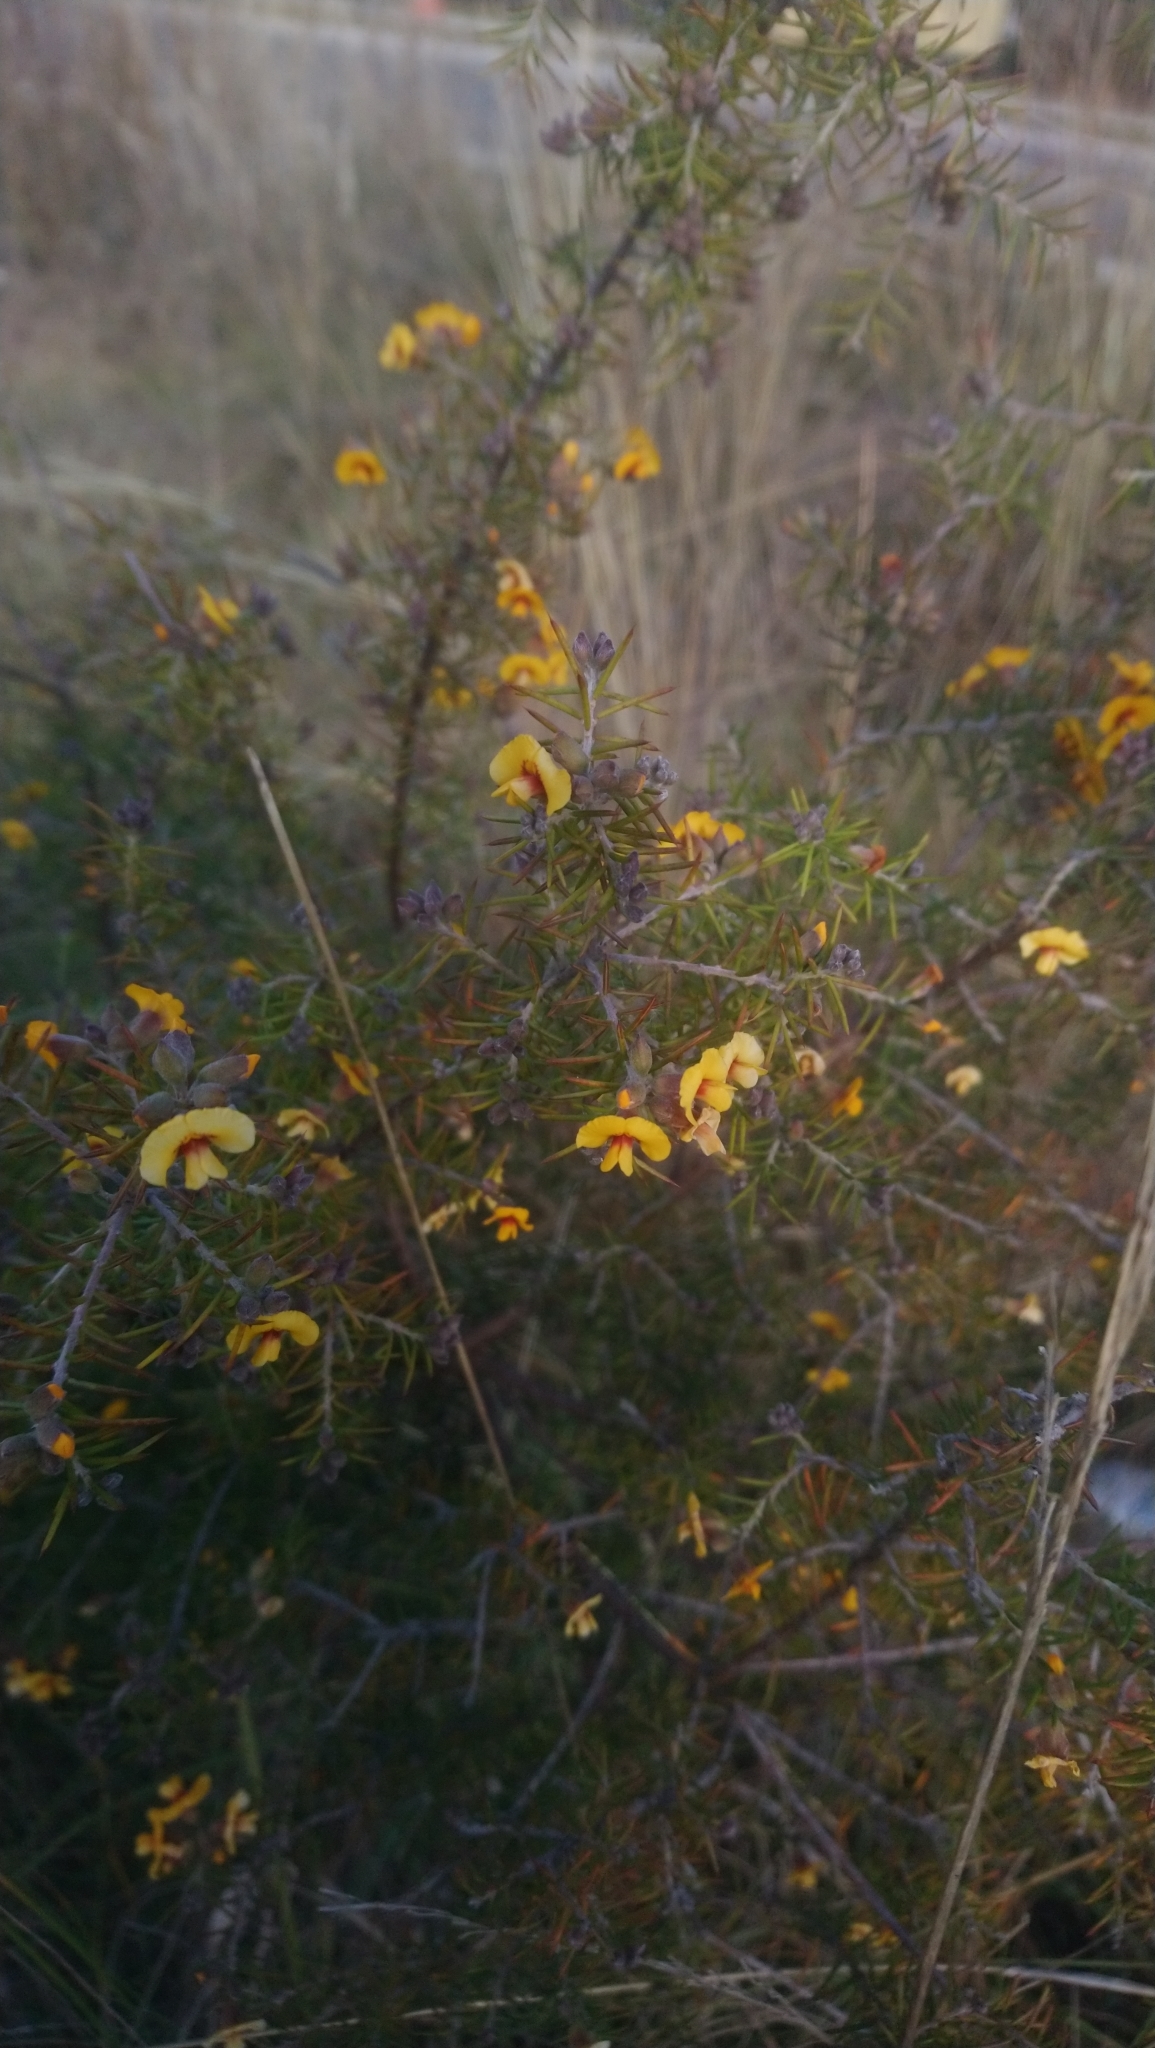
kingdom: Plantae
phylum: Tracheophyta
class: Magnoliopsida
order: Fabales
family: Fabaceae
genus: Dillwynia
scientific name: Dillwynia sieberi
